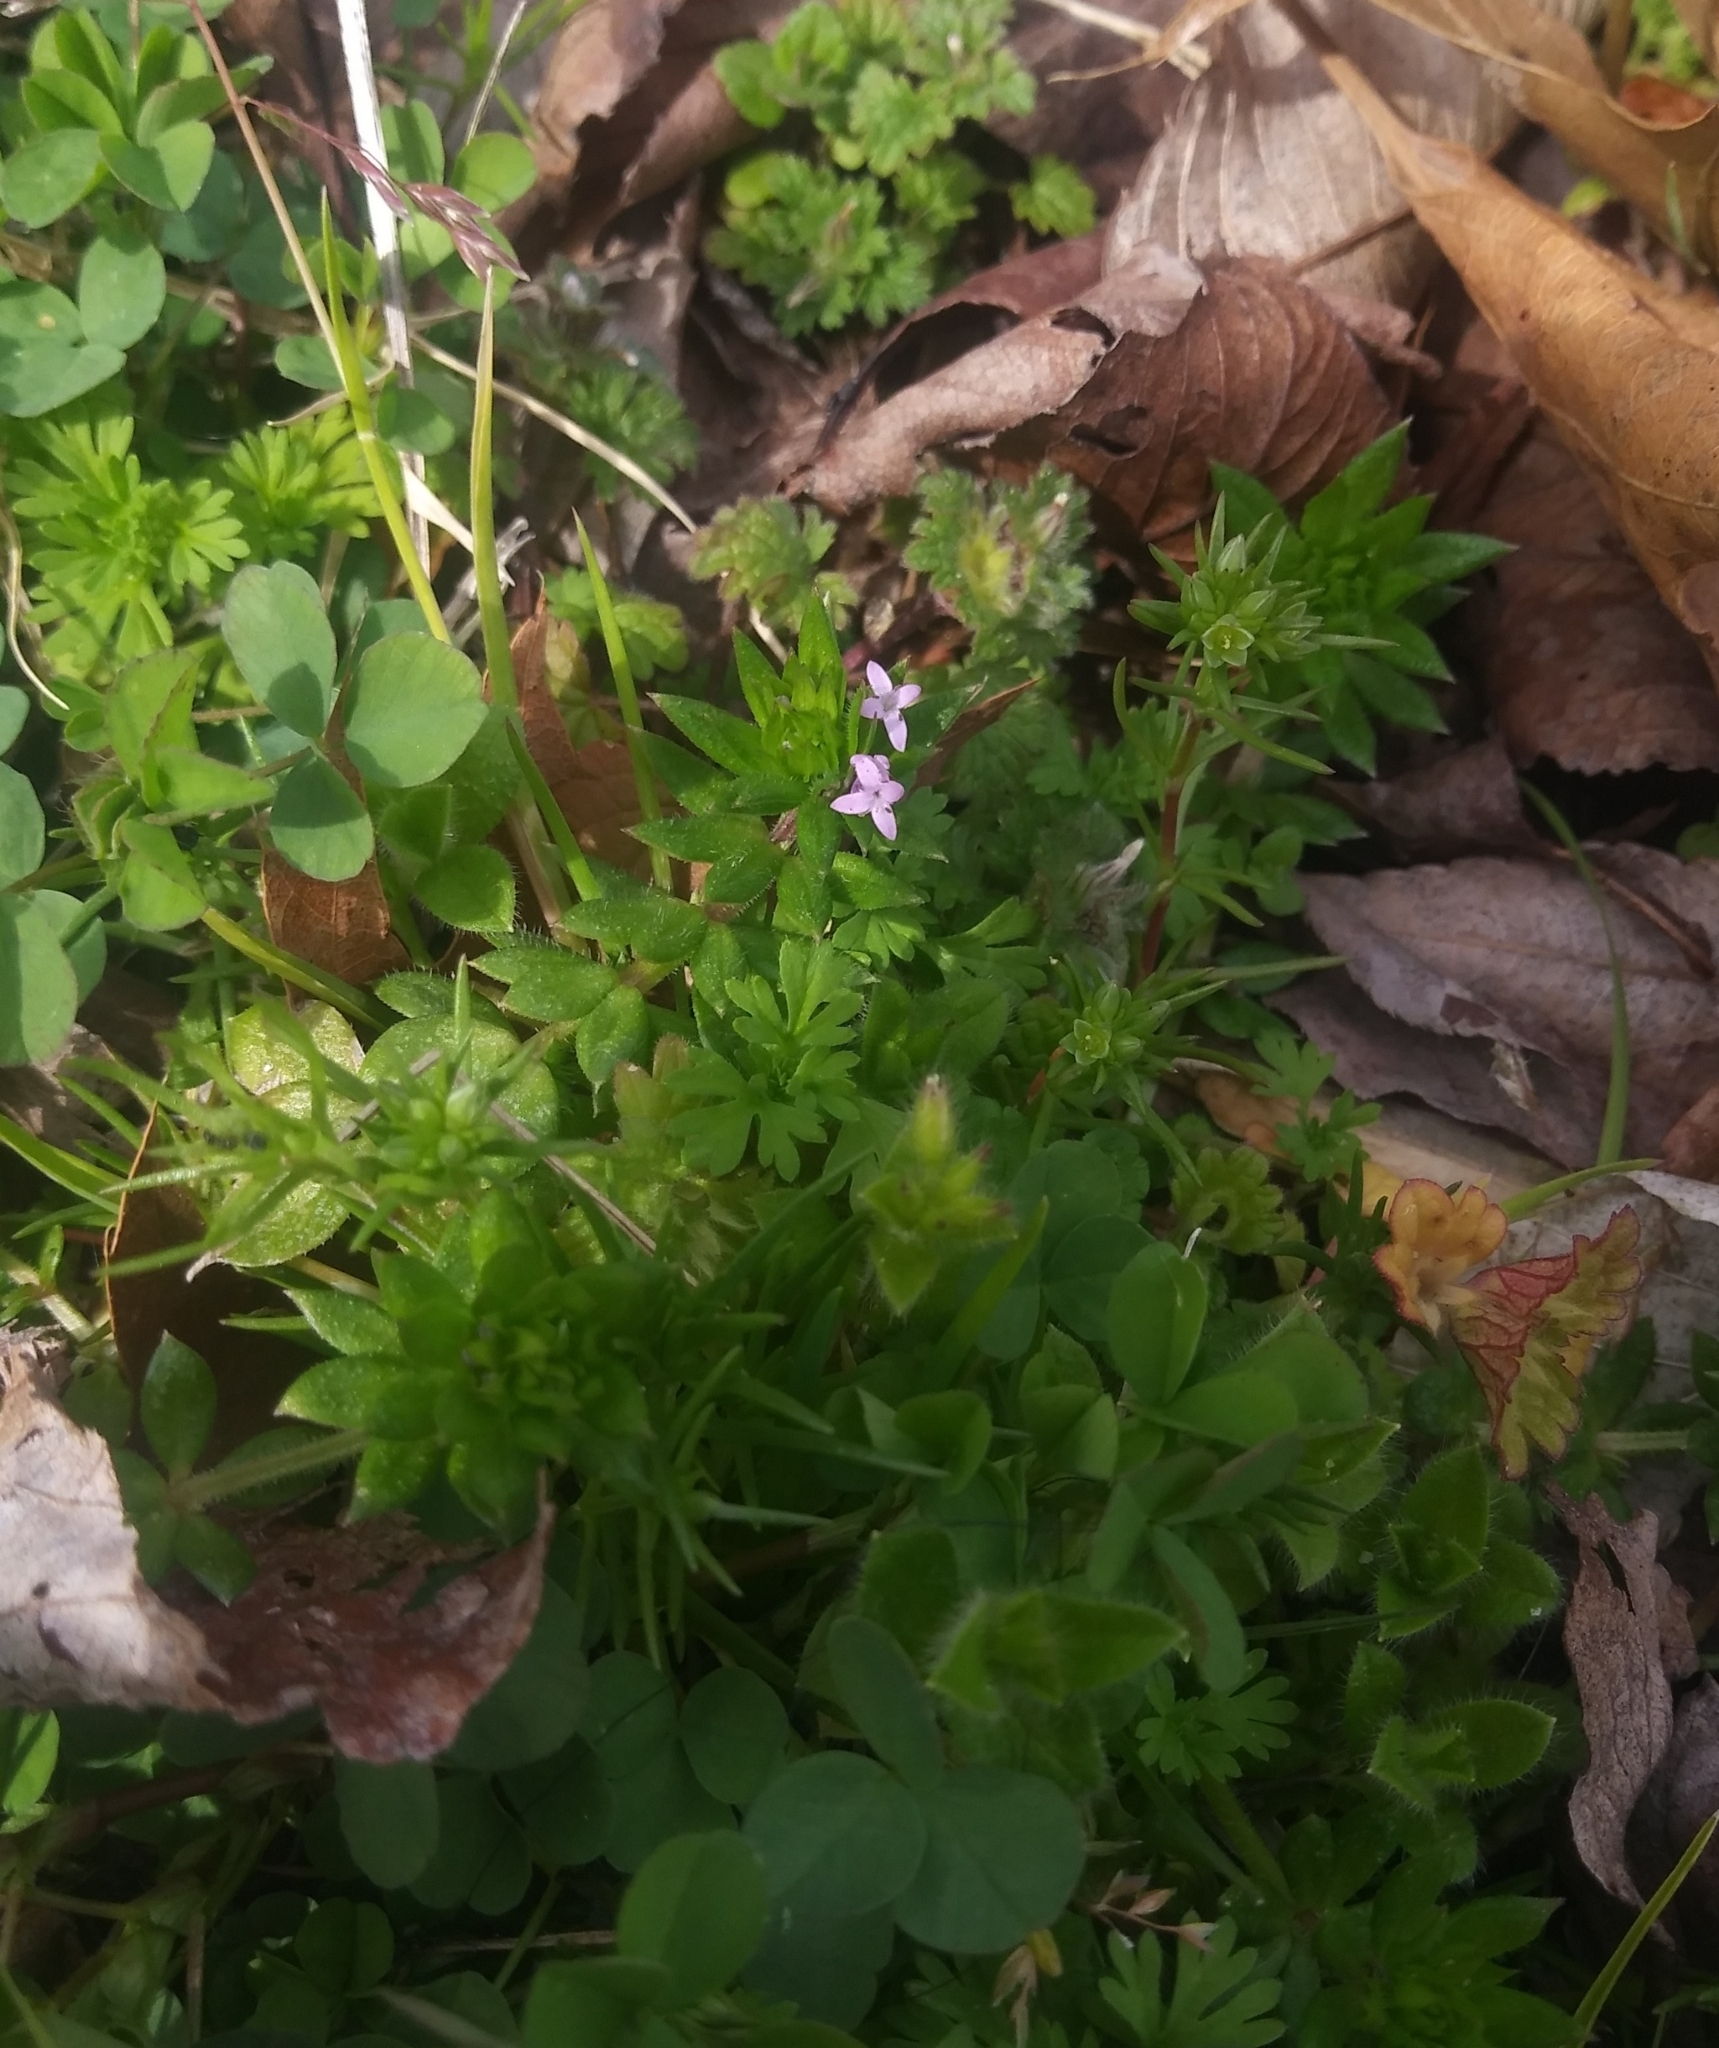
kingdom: Plantae
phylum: Tracheophyta
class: Magnoliopsida
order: Gentianales
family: Rubiaceae
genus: Sherardia
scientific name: Sherardia arvensis
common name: Field madder
